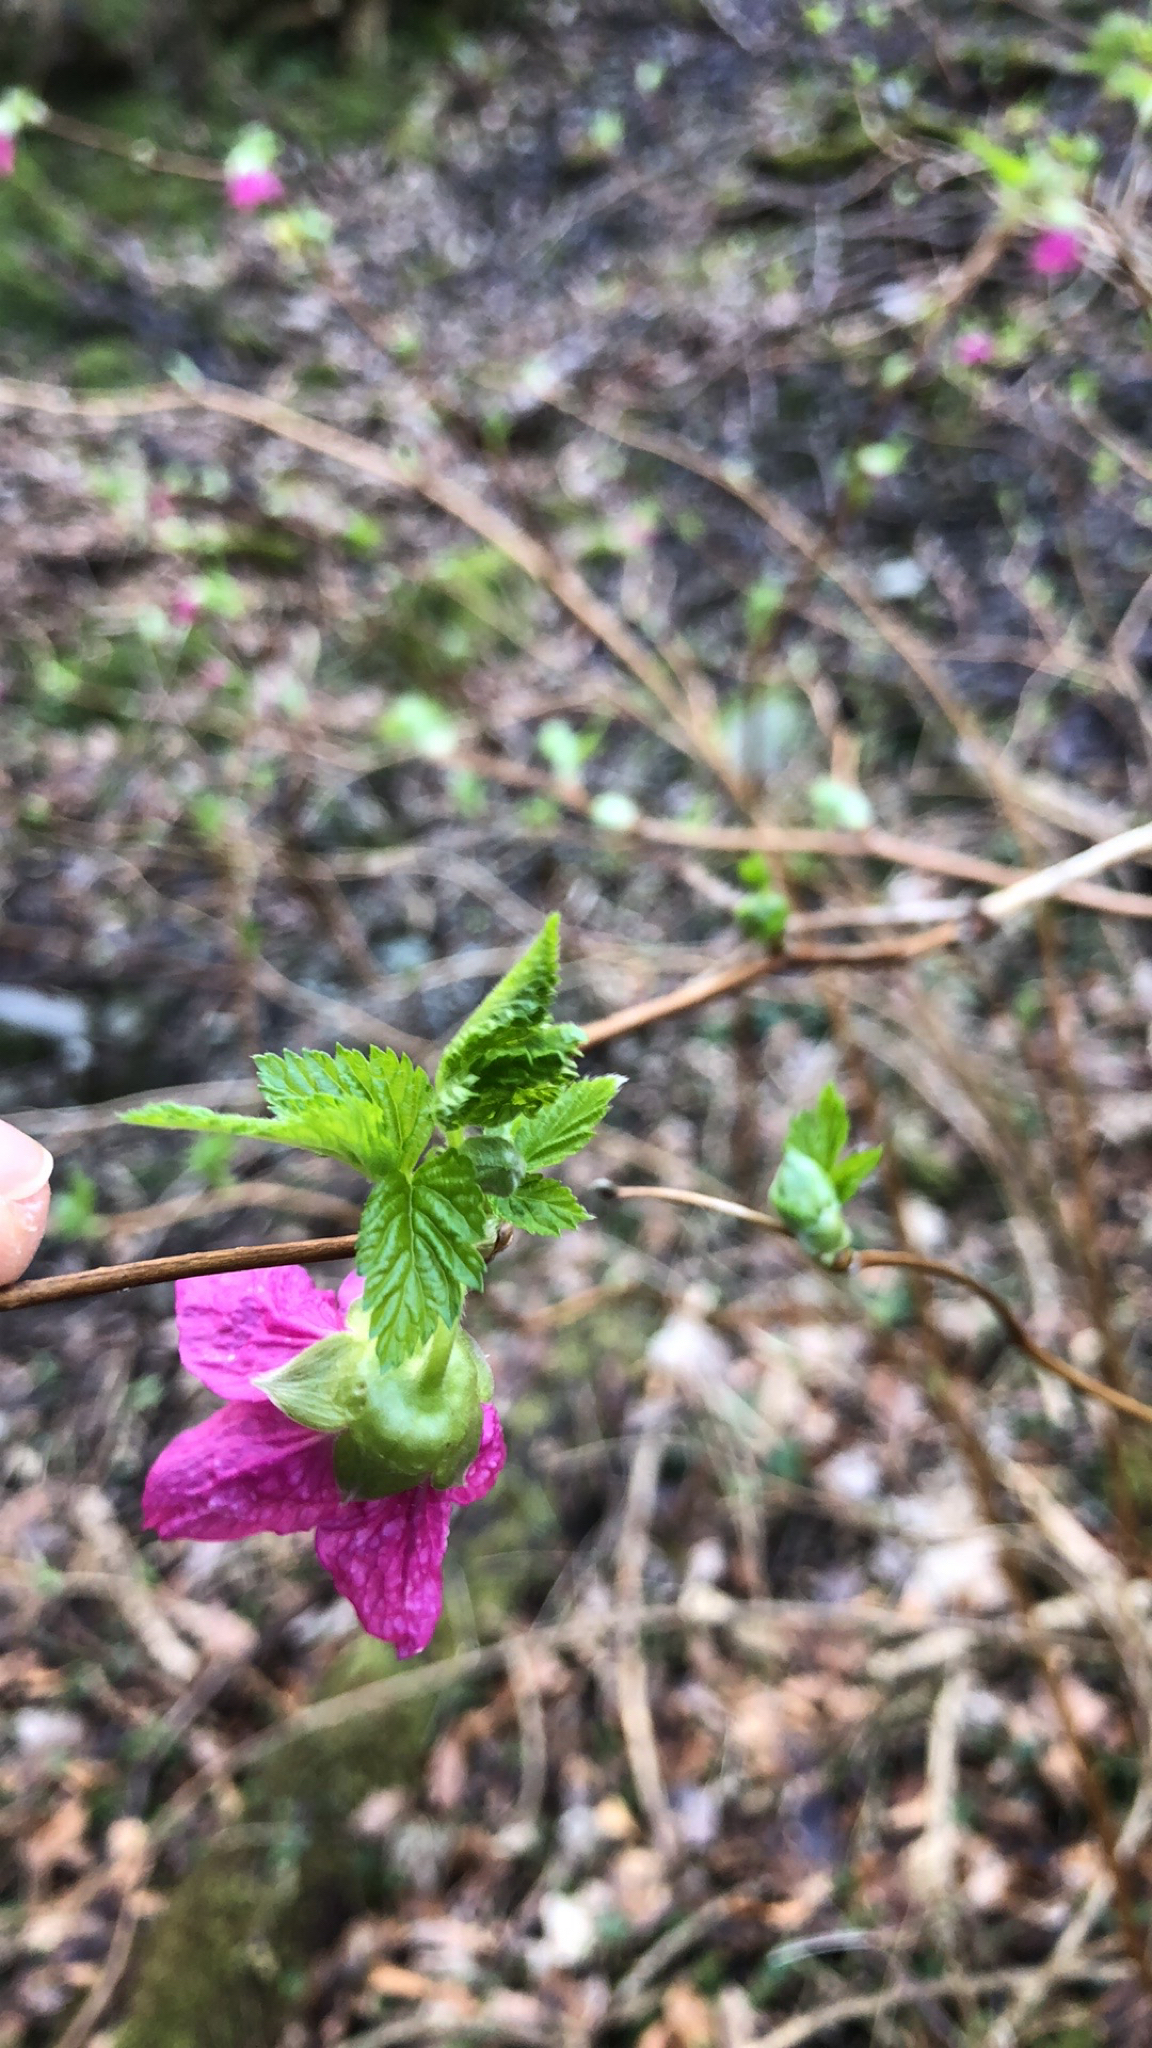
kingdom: Plantae
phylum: Tracheophyta
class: Magnoliopsida
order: Rosales
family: Rosaceae
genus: Rubus
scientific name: Rubus spectabilis
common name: Salmonberry
